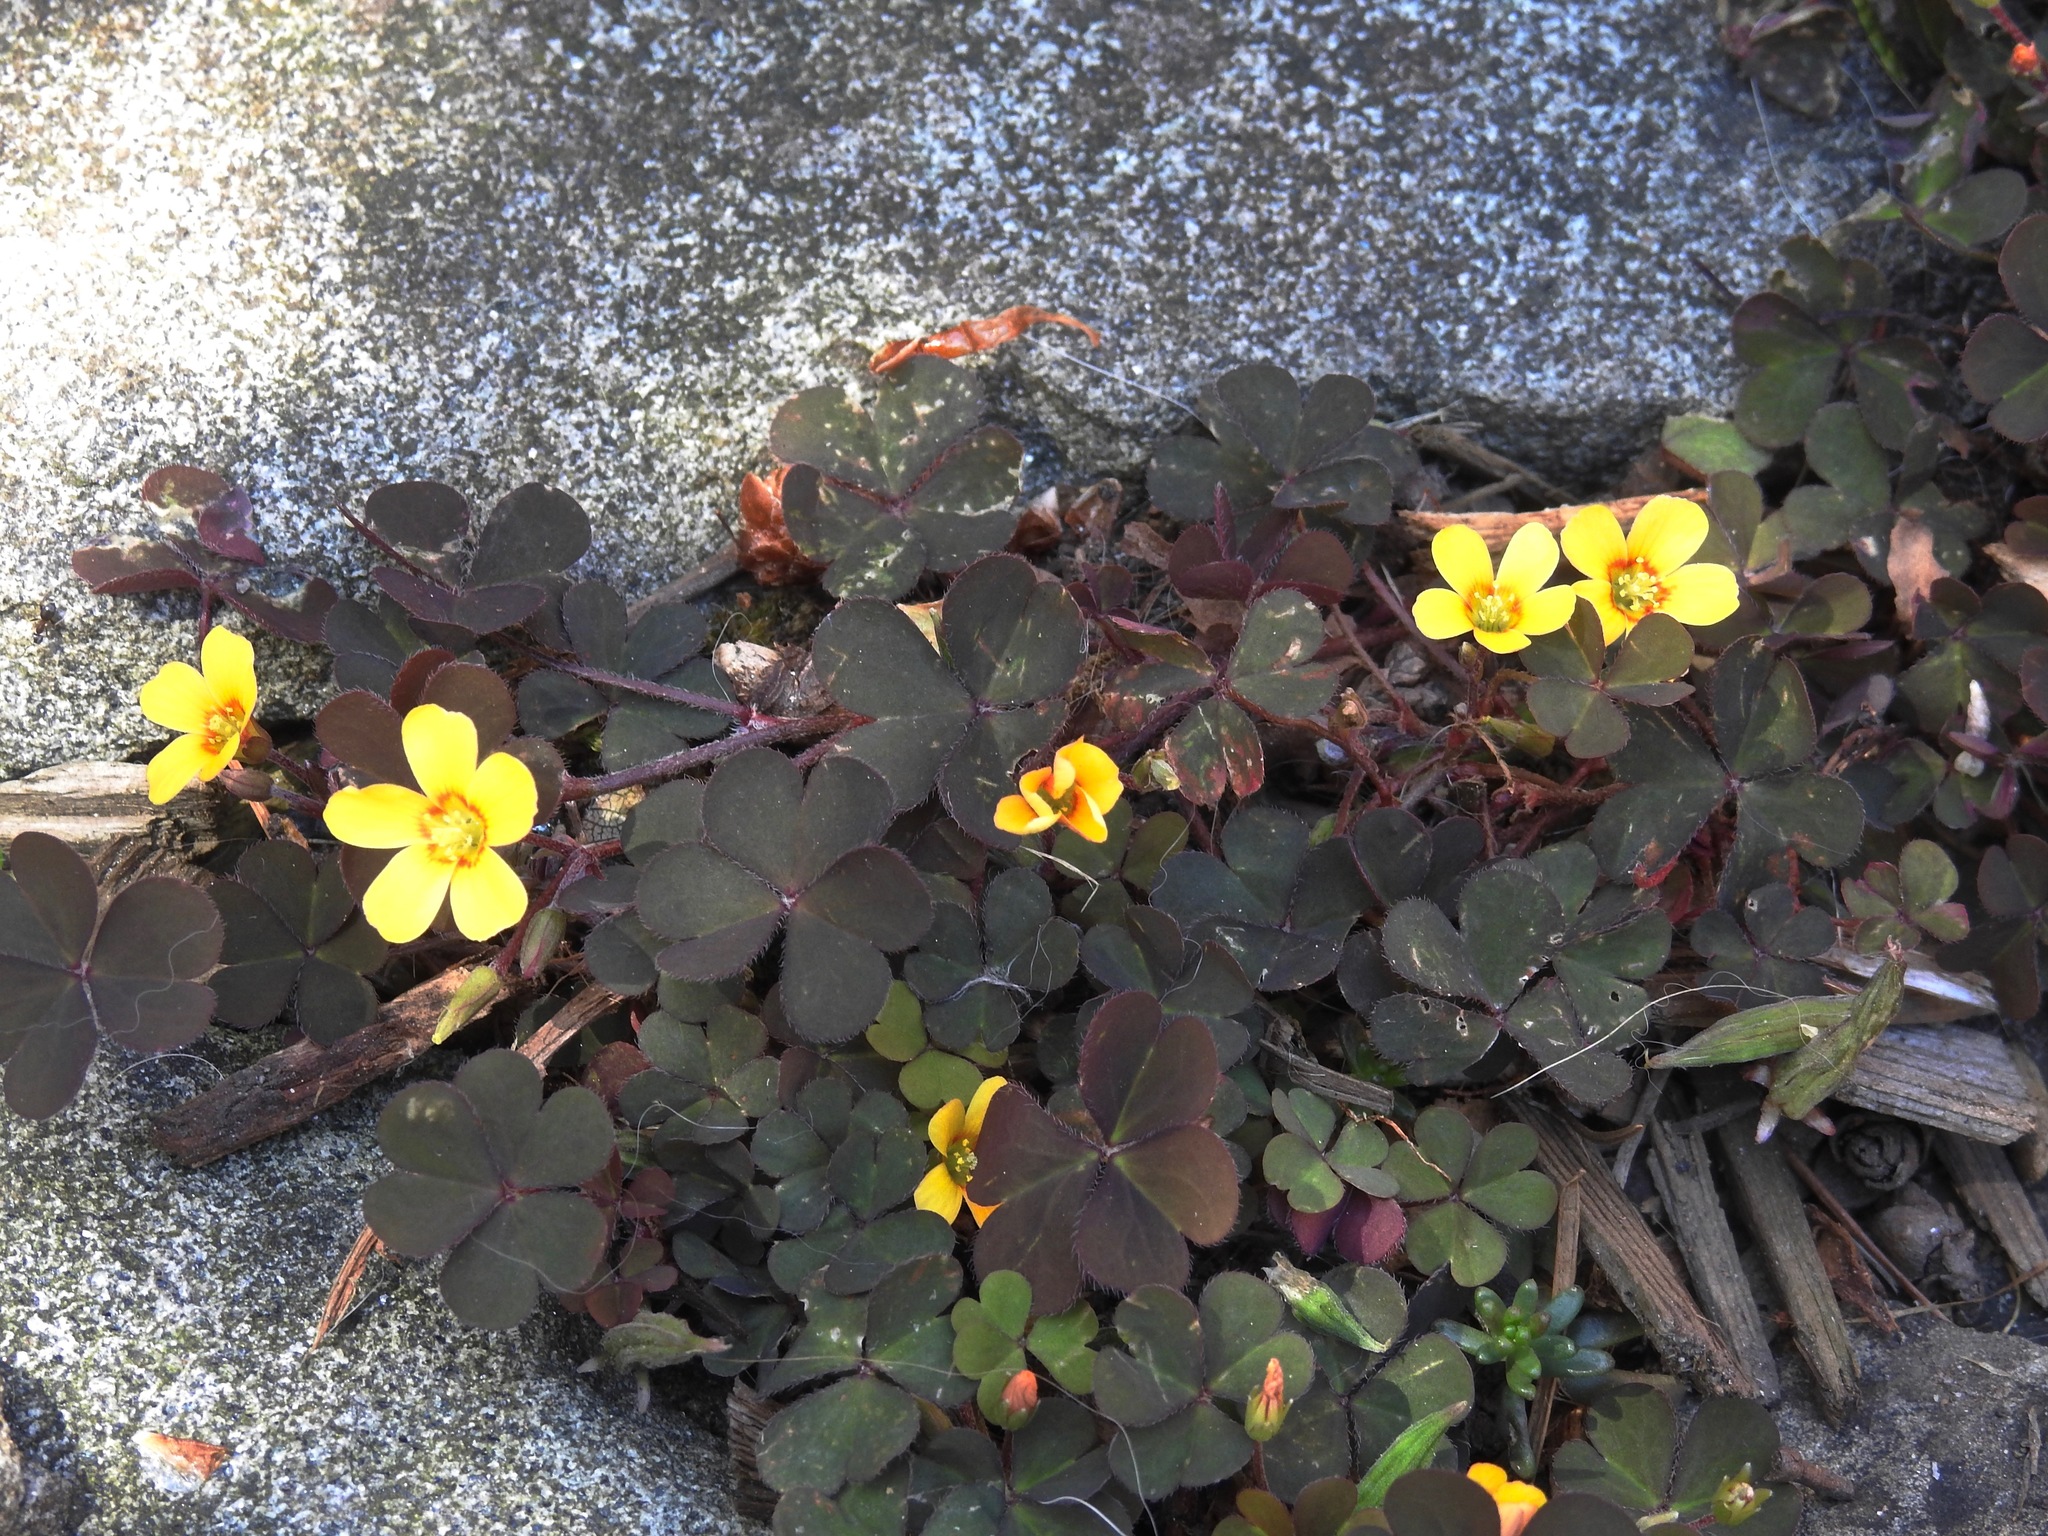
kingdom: Plantae
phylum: Tracheophyta
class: Magnoliopsida
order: Oxalidales
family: Oxalidaceae
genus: Oxalis
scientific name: Oxalis corniculata
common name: Procumbent yellow-sorrel
